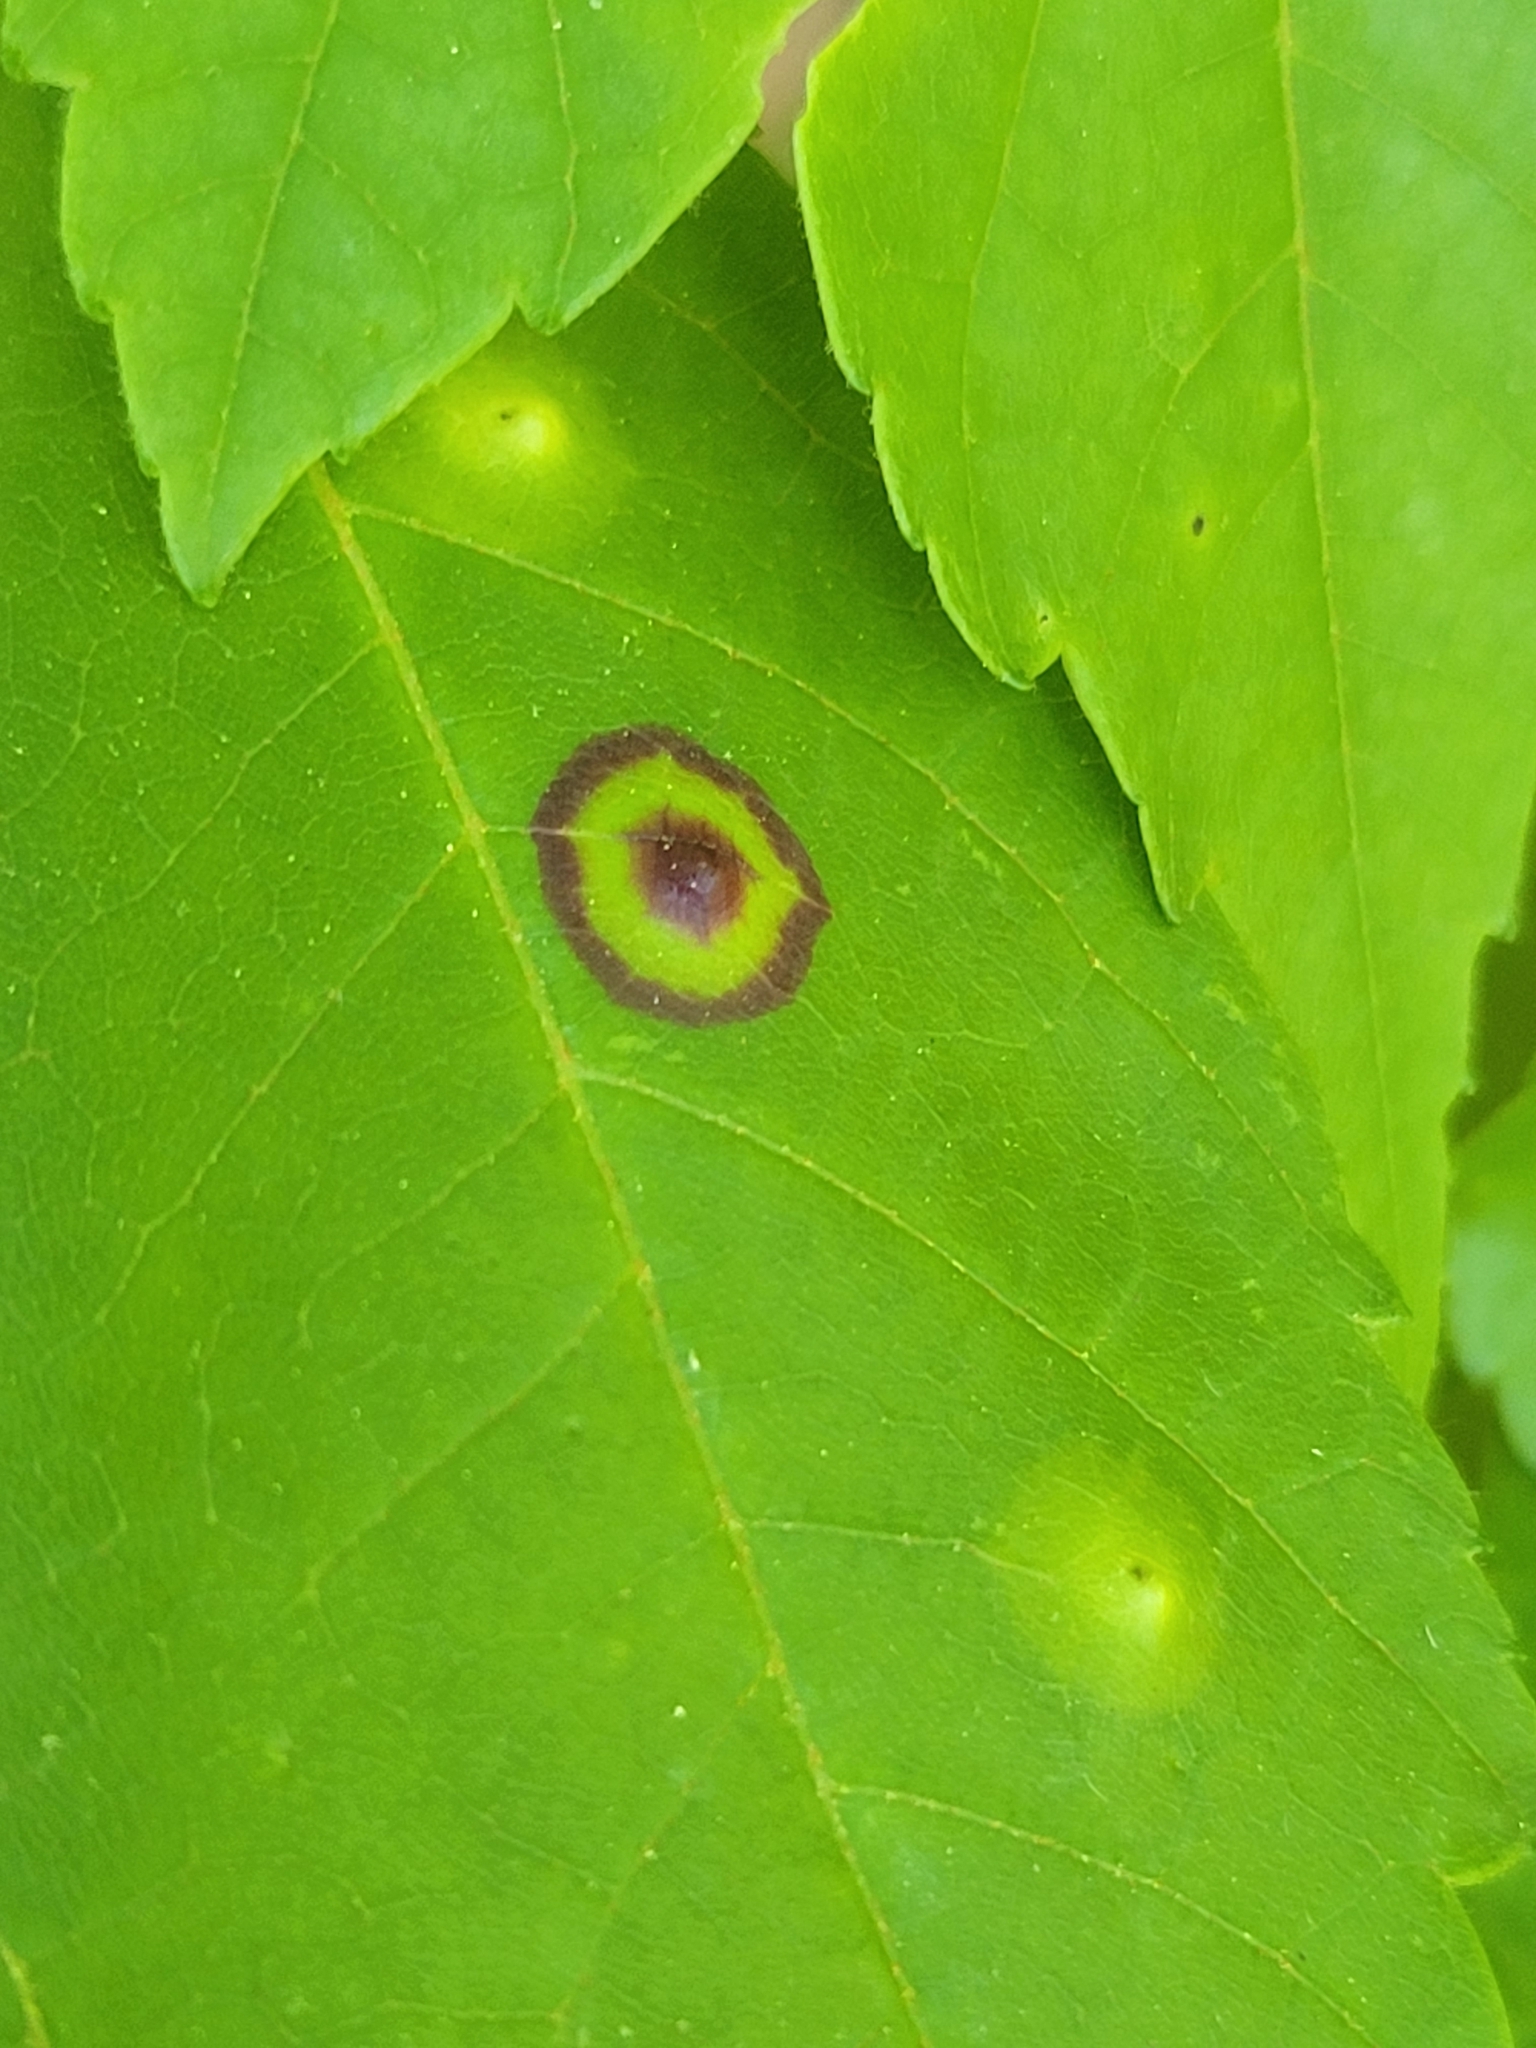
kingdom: Animalia
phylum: Arthropoda
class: Insecta
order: Diptera
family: Cecidomyiidae
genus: Acericecis
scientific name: Acericecis ocellaris
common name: Ocellate gall midge
